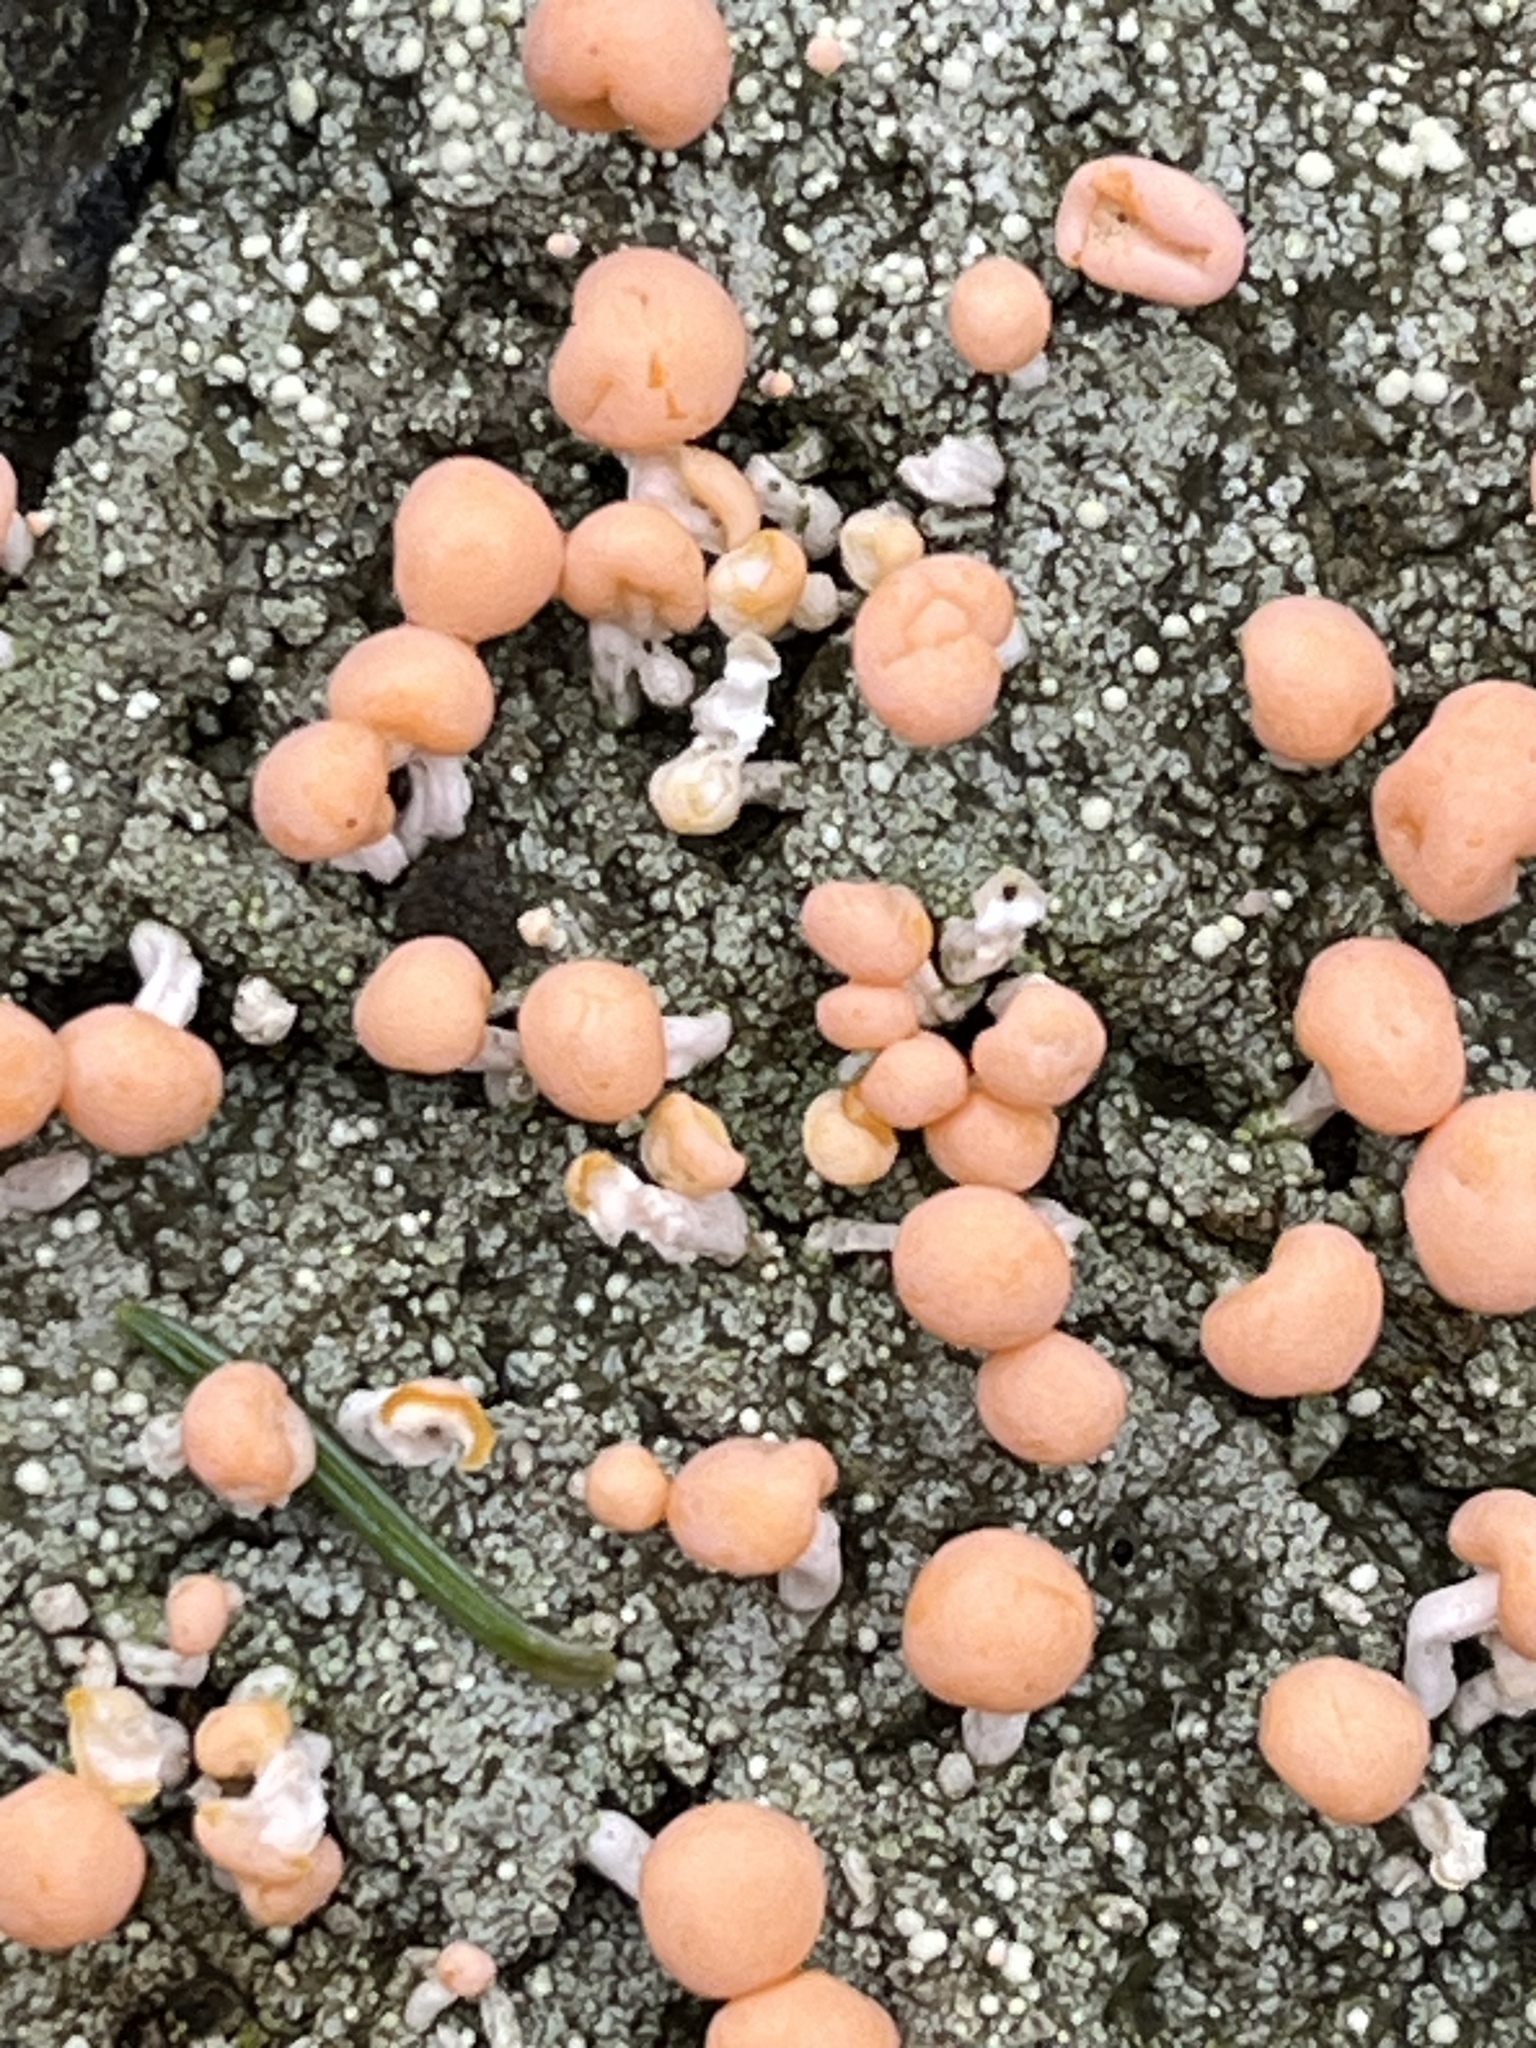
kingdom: Fungi
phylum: Ascomycota
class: Lecanoromycetes
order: Pertusariales
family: Icmadophilaceae
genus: Dibaeis
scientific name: Dibaeis baeomyces
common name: Pink earth lichen
